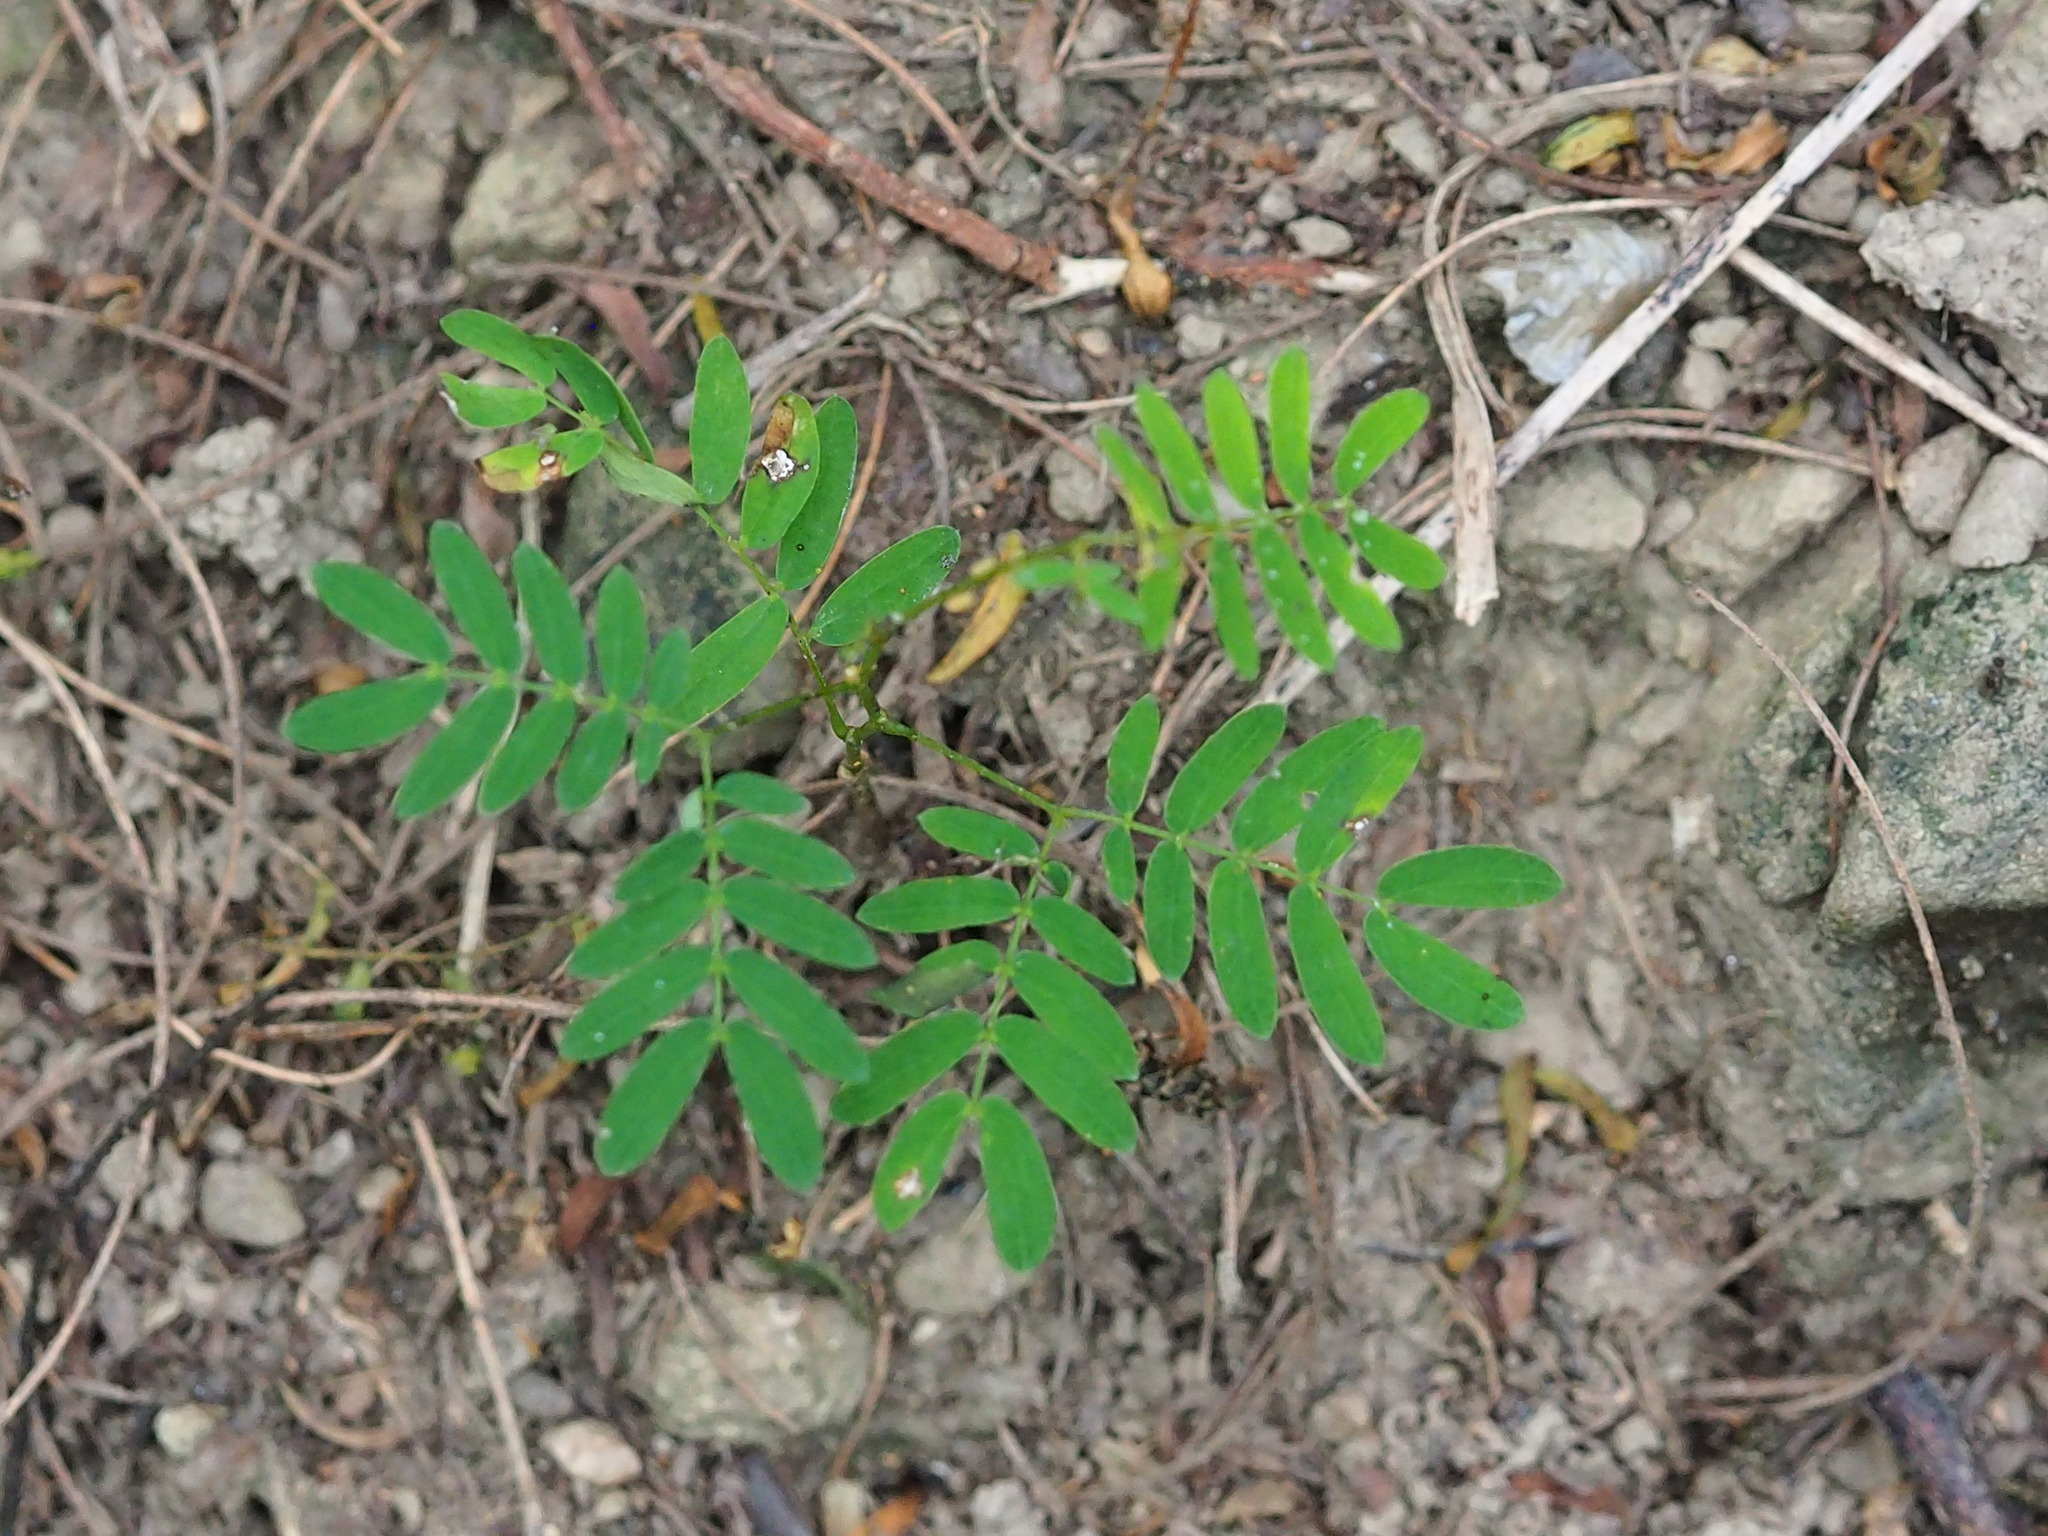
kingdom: Plantae
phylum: Tracheophyta
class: Magnoliopsida
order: Fabales
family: Fabaceae
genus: Leucaena
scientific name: Leucaena leucocephala
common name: White leadtree
